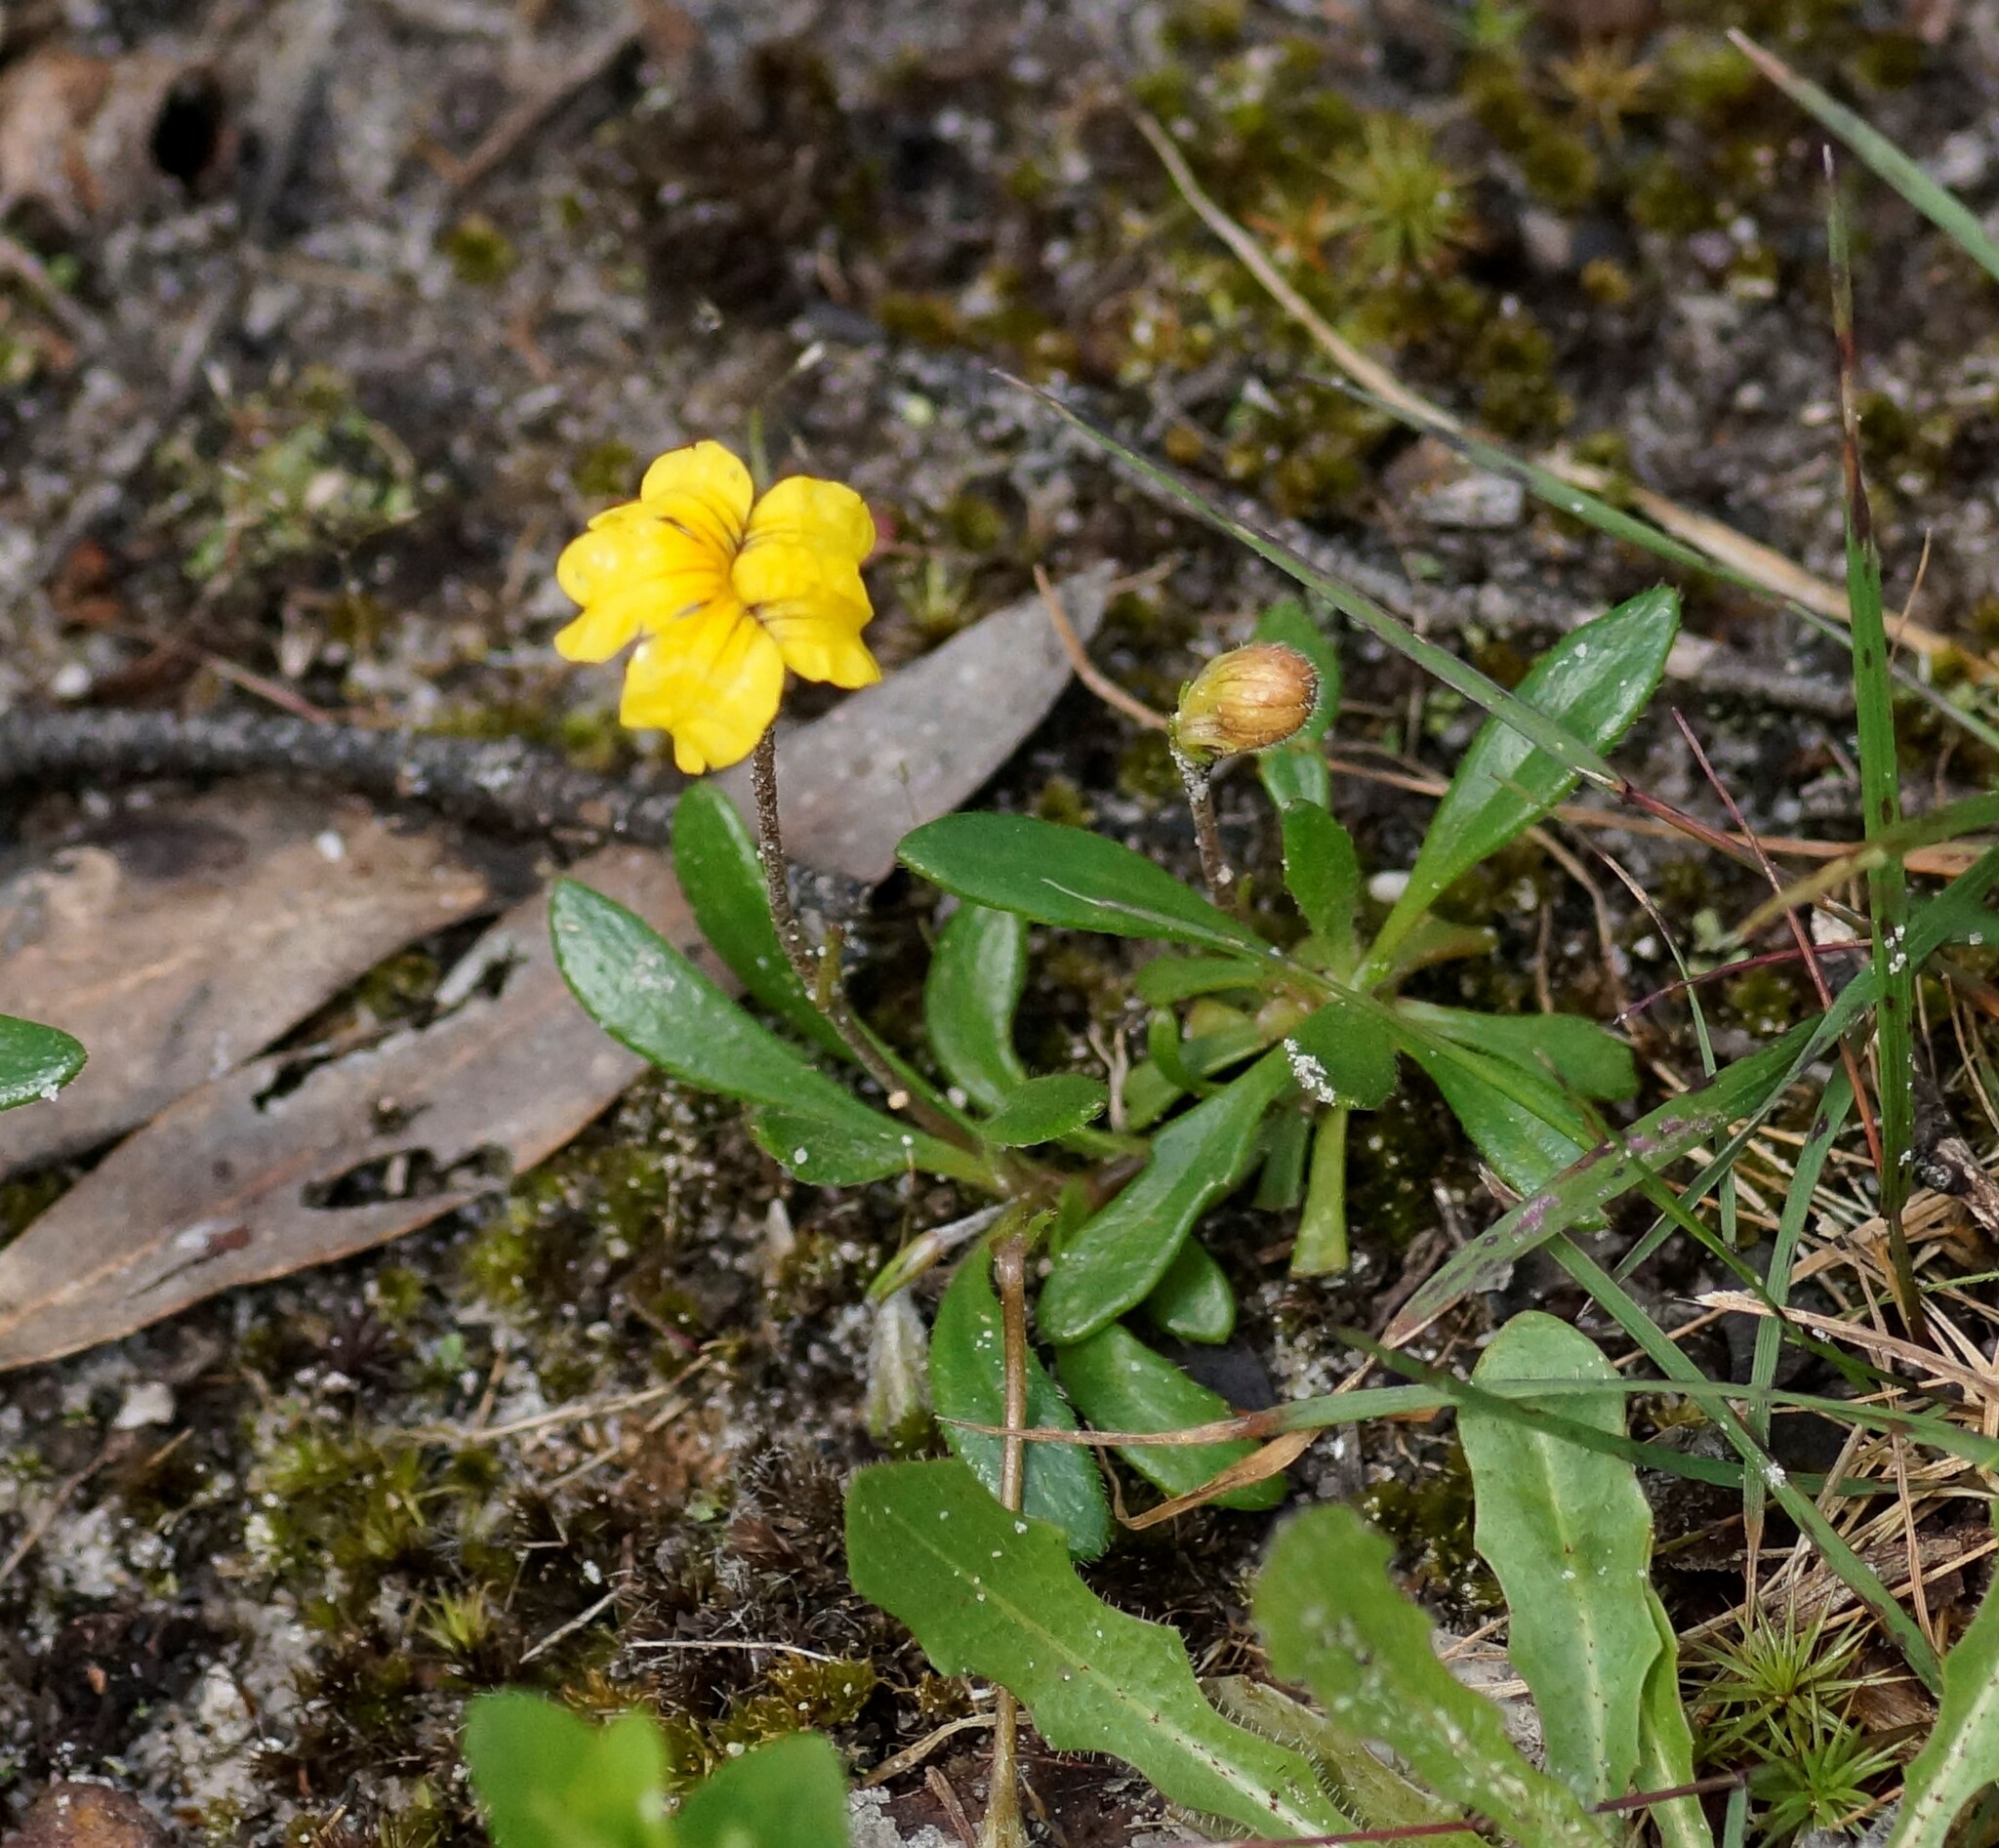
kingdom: Plantae
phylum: Tracheophyta
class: Magnoliopsida
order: Asterales
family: Goodeniaceae
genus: Goodenia
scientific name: Goodenia geniculata
